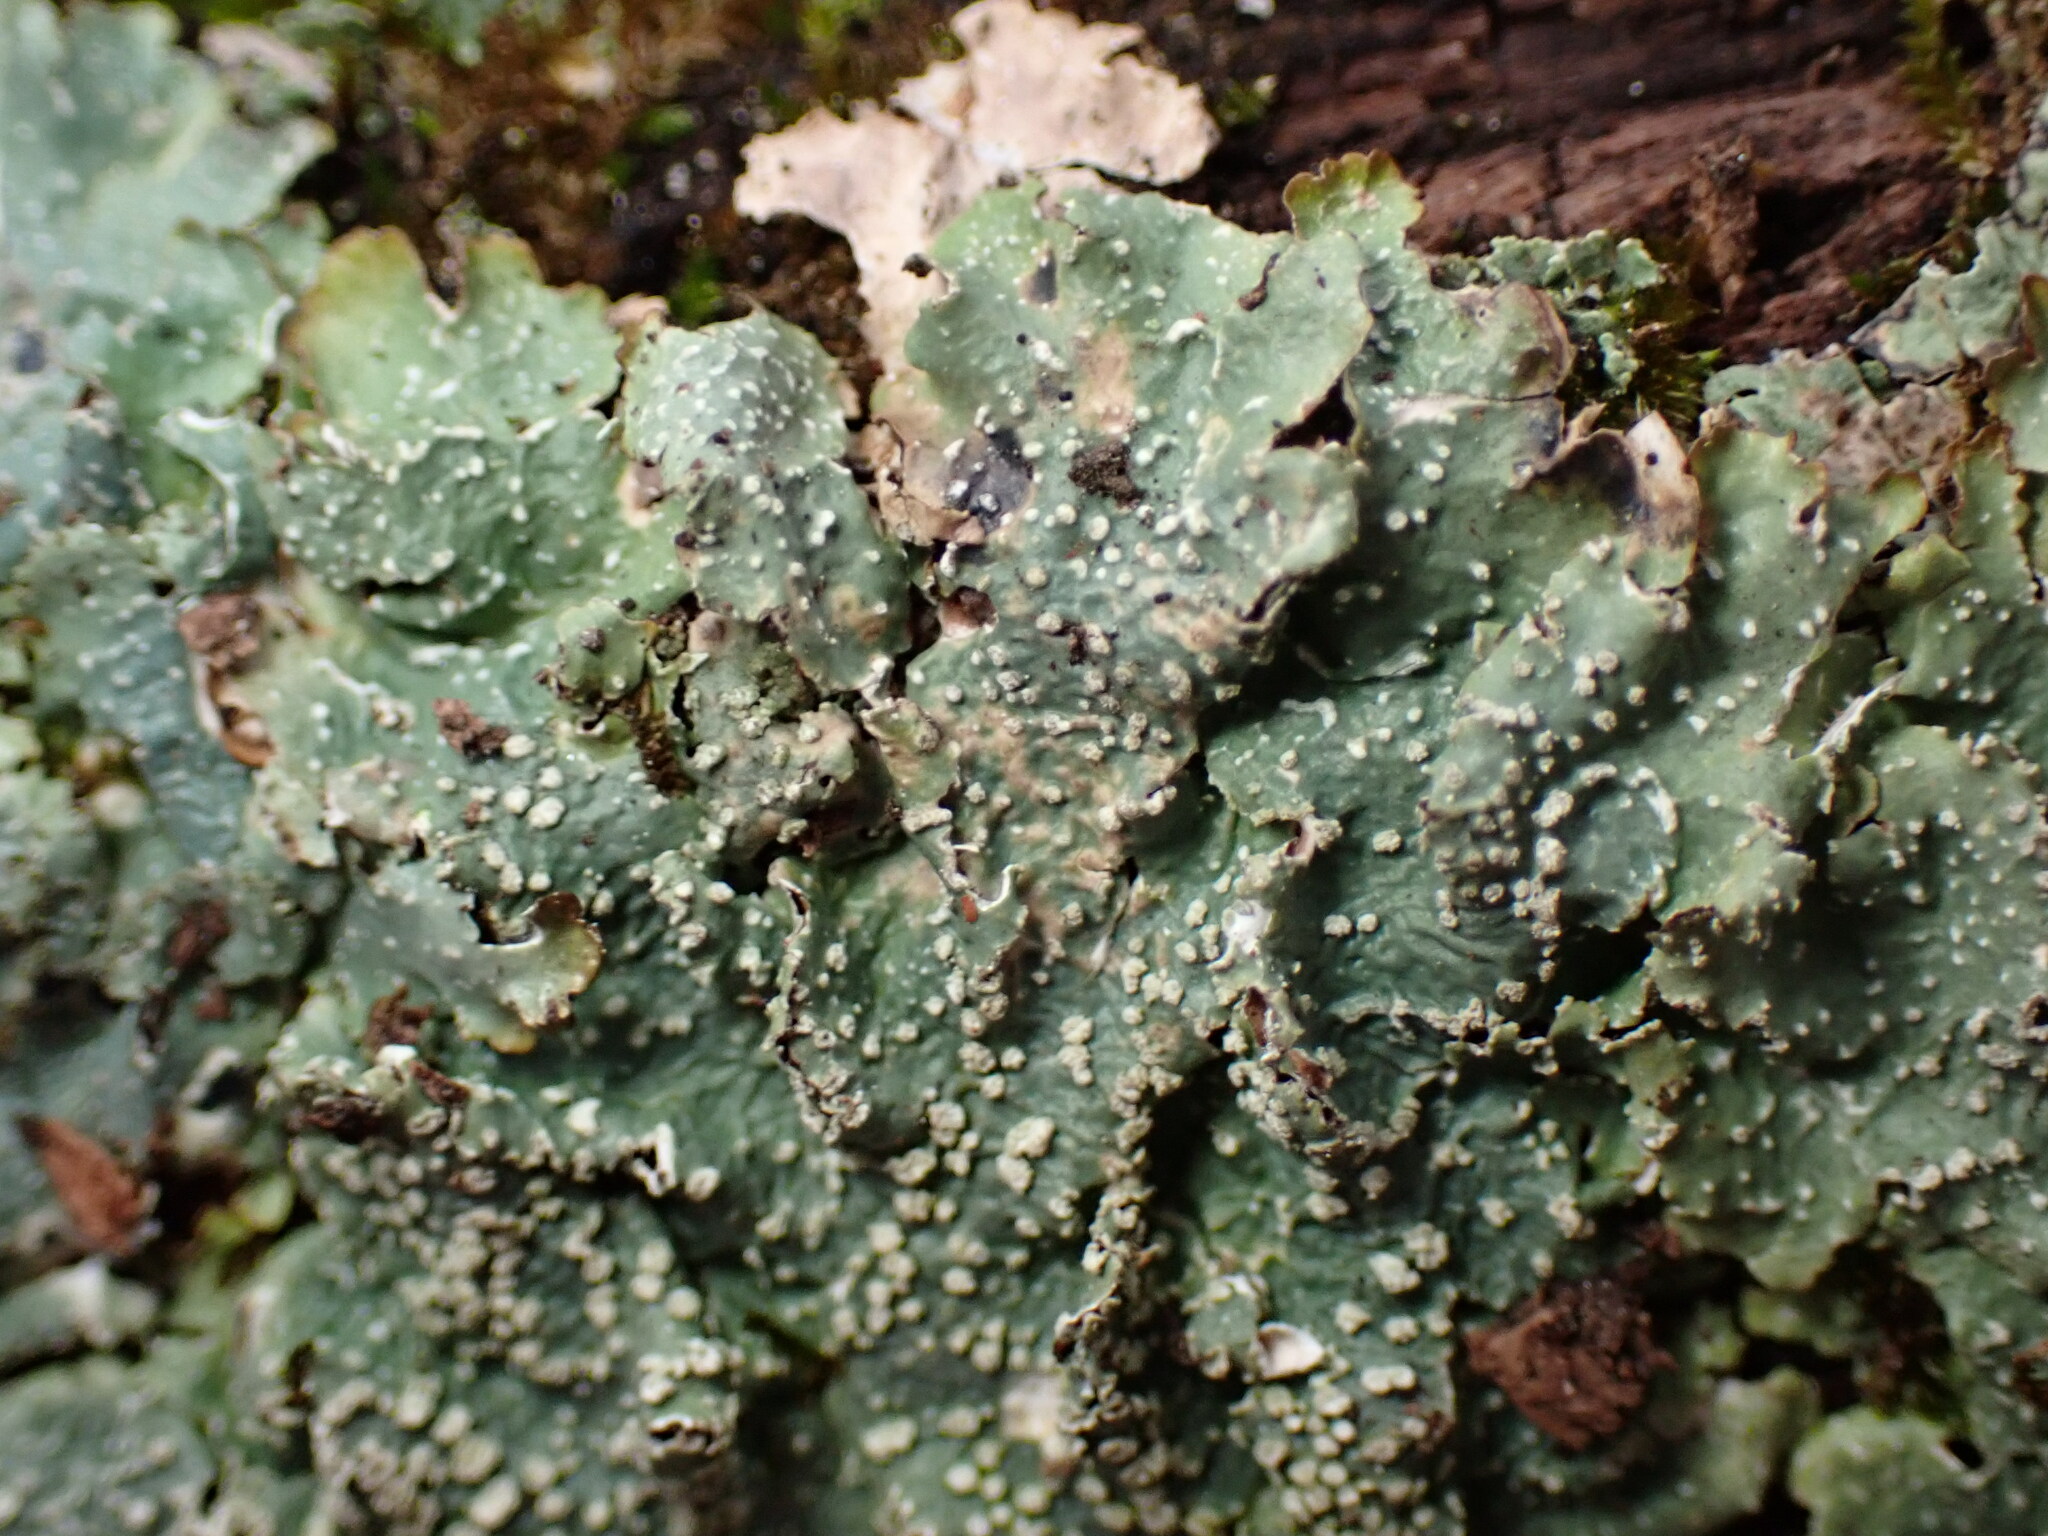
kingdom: Fungi
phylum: Ascomycota
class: Lecanoromycetes
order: Lecanorales
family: Parmeliaceae
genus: Punctelia
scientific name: Punctelia caseana
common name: Moondust speckled lichen
